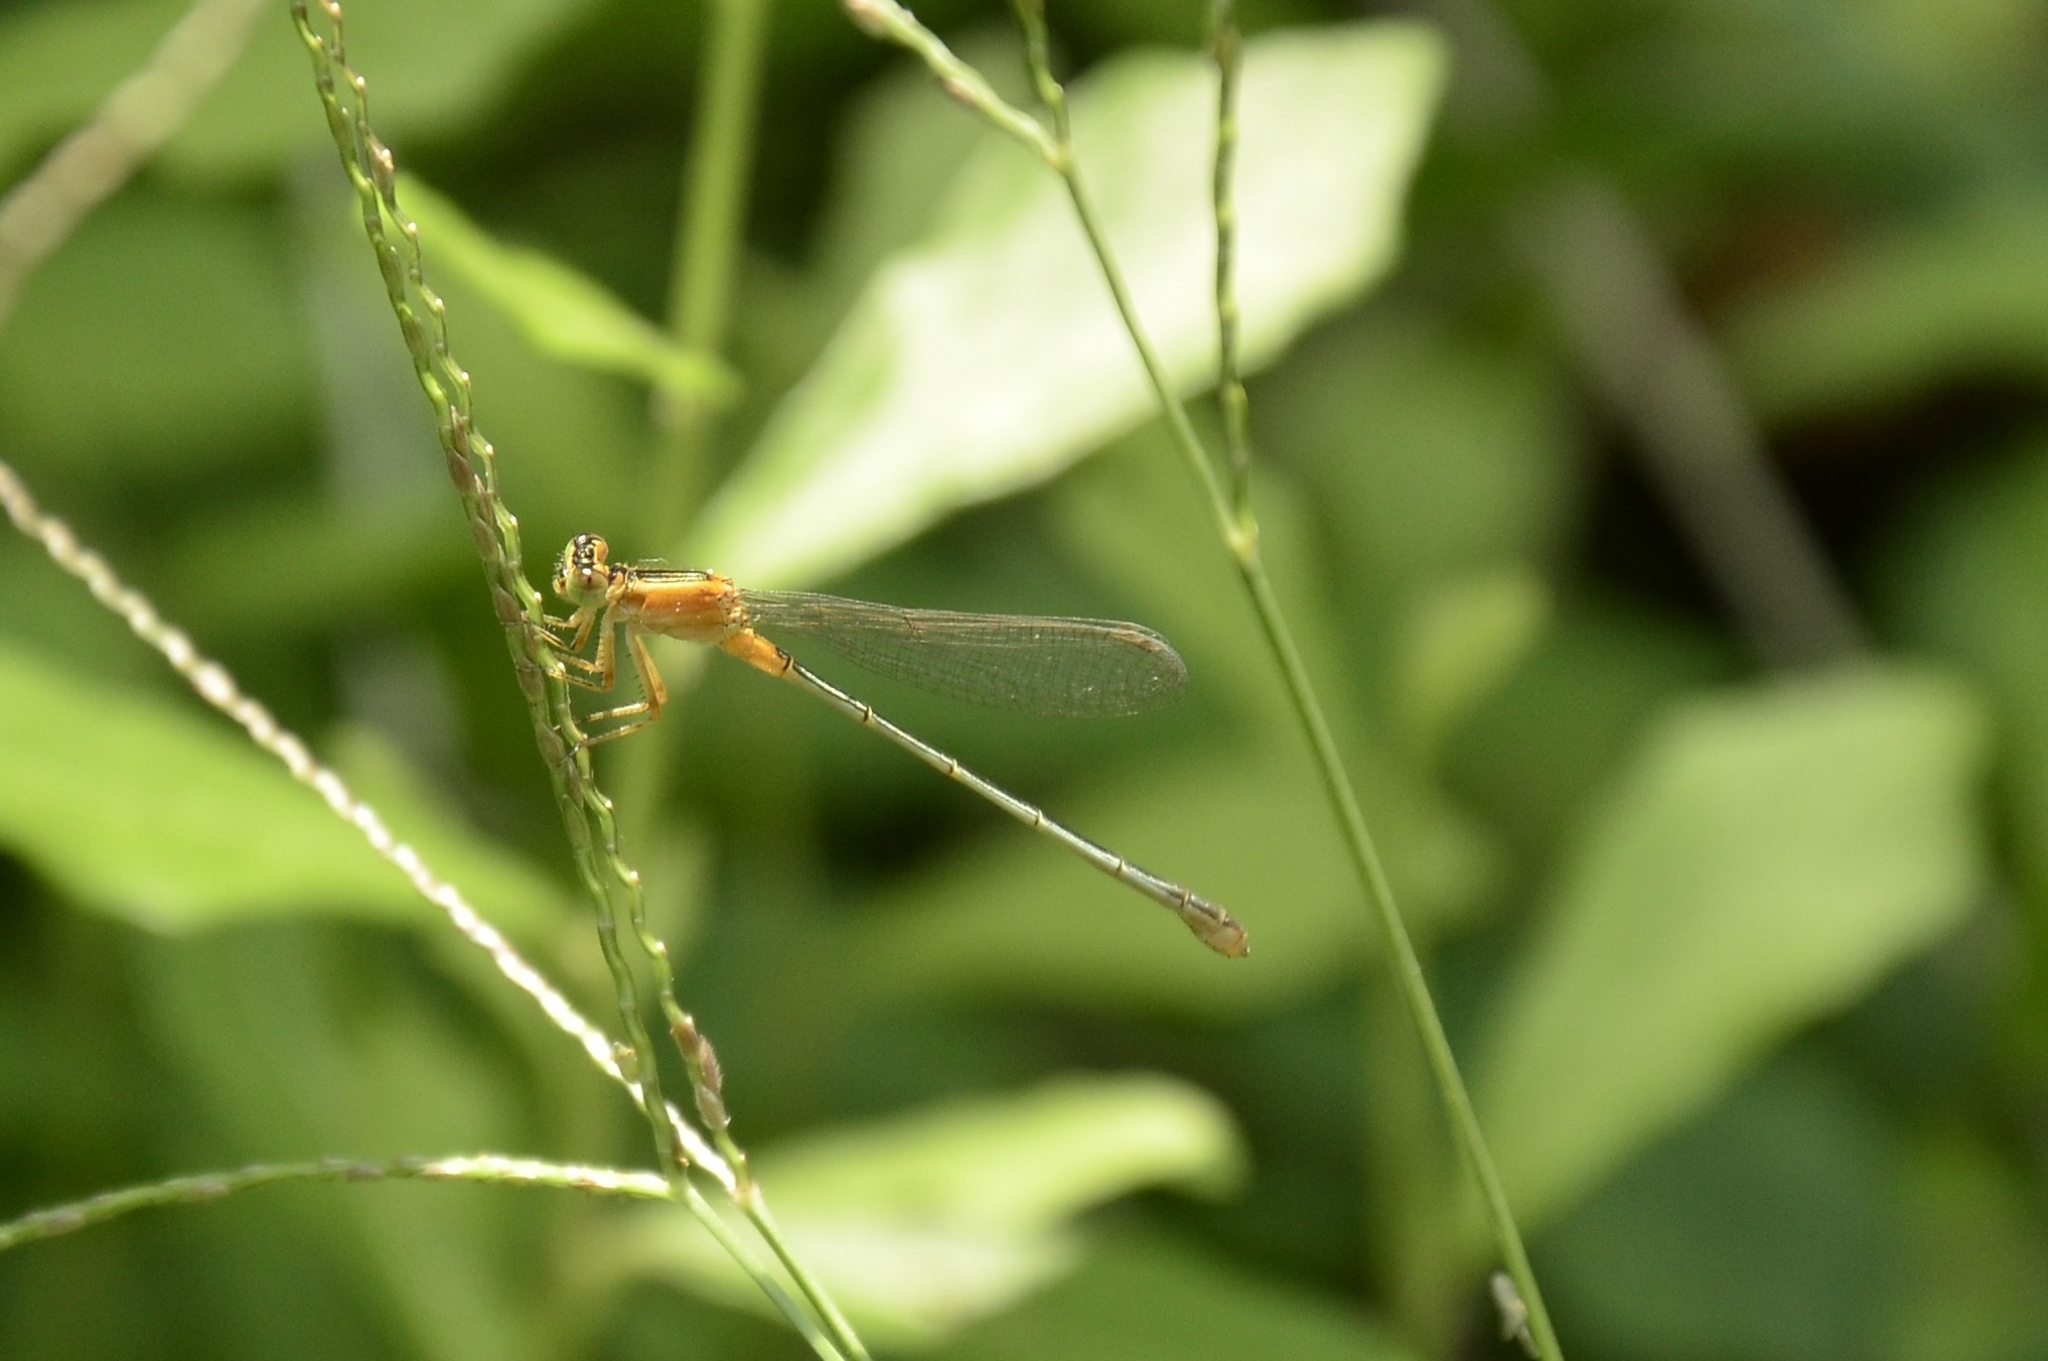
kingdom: Animalia
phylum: Arthropoda
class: Insecta
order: Odonata
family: Coenagrionidae
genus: Ischnura
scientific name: Ischnura senegalensis
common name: Tropical bluetail
